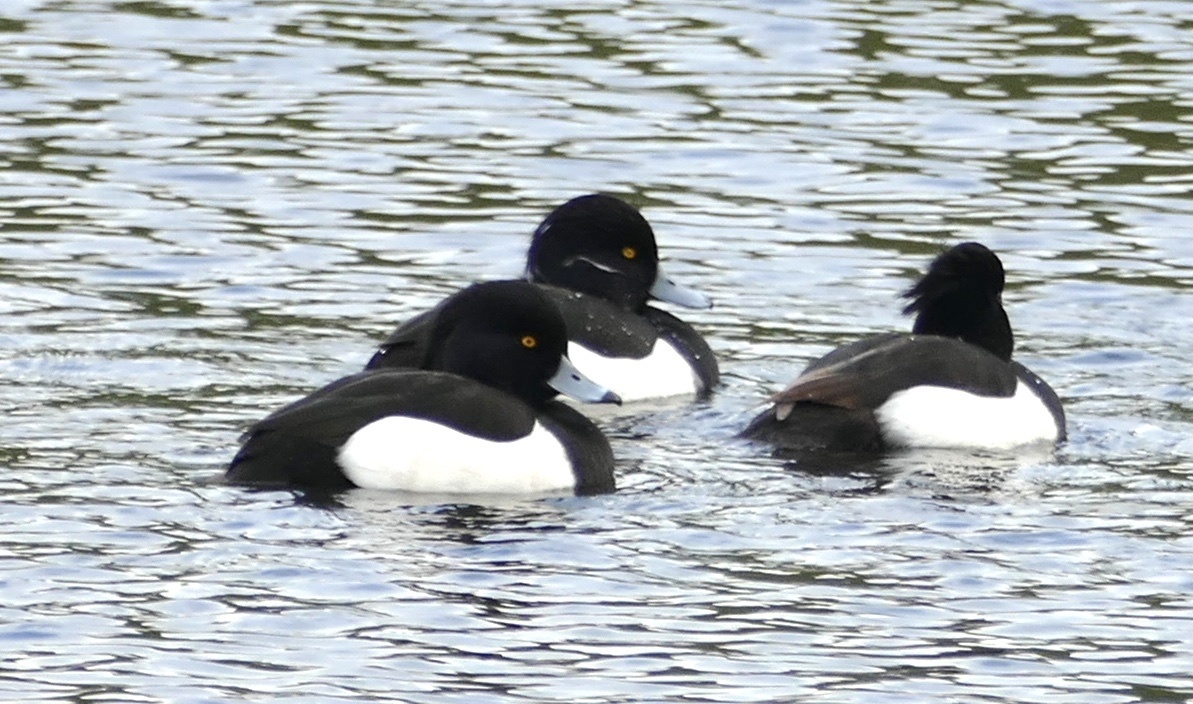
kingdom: Animalia
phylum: Chordata
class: Aves
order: Anseriformes
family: Anatidae
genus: Aythya
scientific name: Aythya fuligula
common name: Tufted duck
